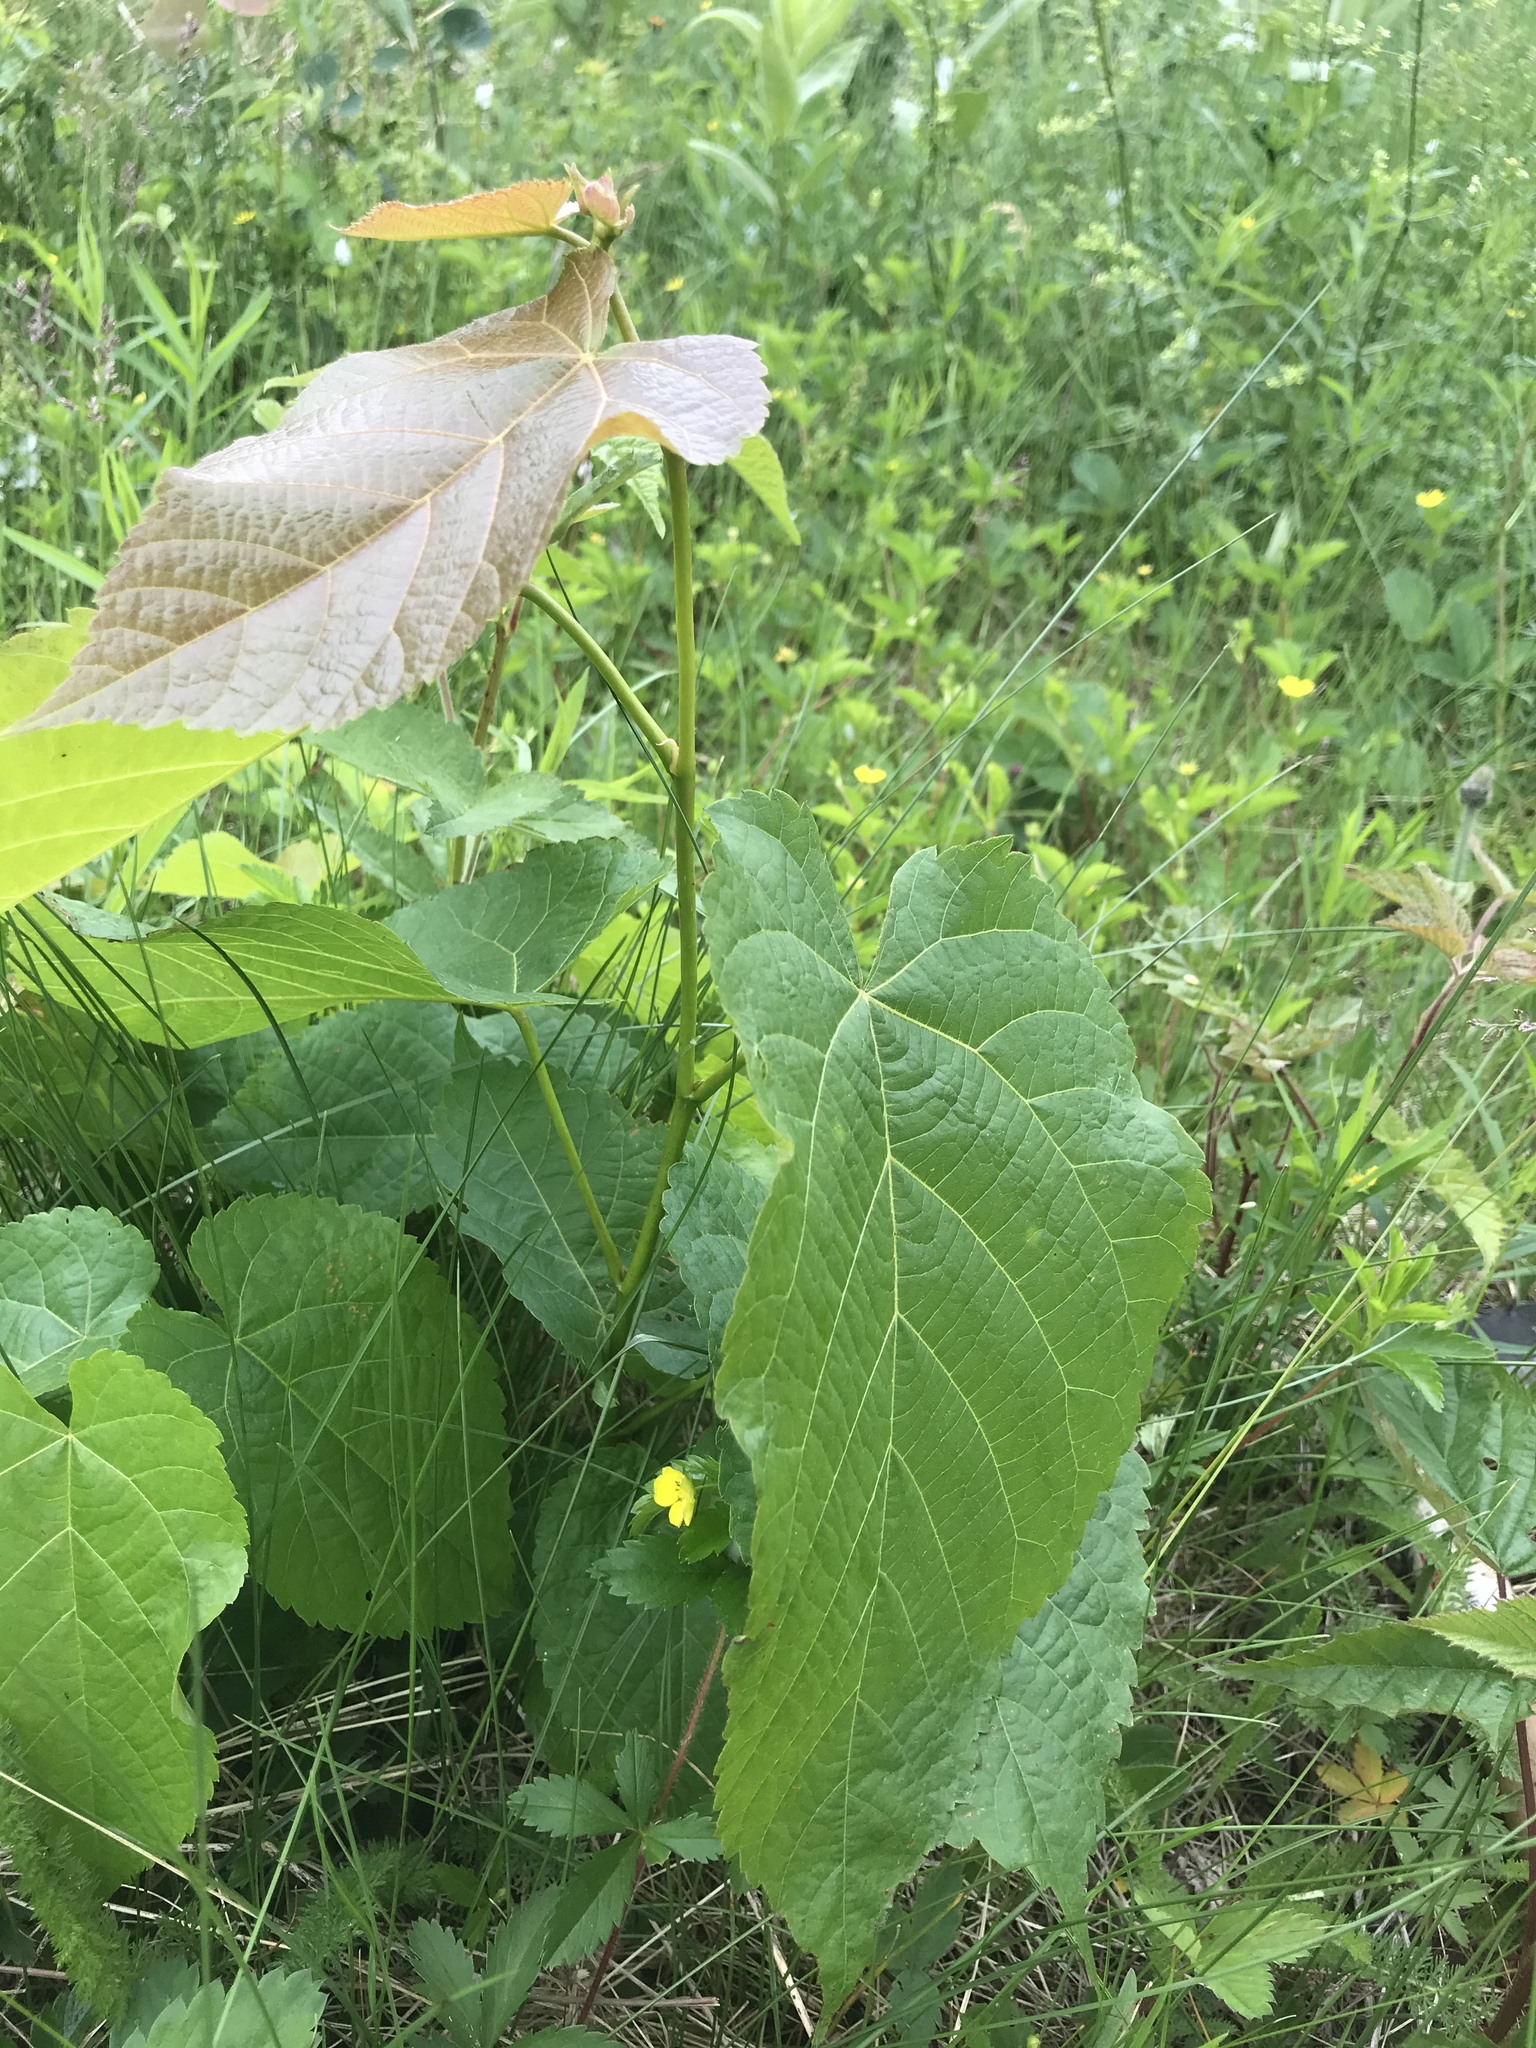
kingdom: Plantae
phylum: Tracheophyta
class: Magnoliopsida
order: Malvales
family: Malvaceae
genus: Tilia
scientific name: Tilia americana
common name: Basswood
